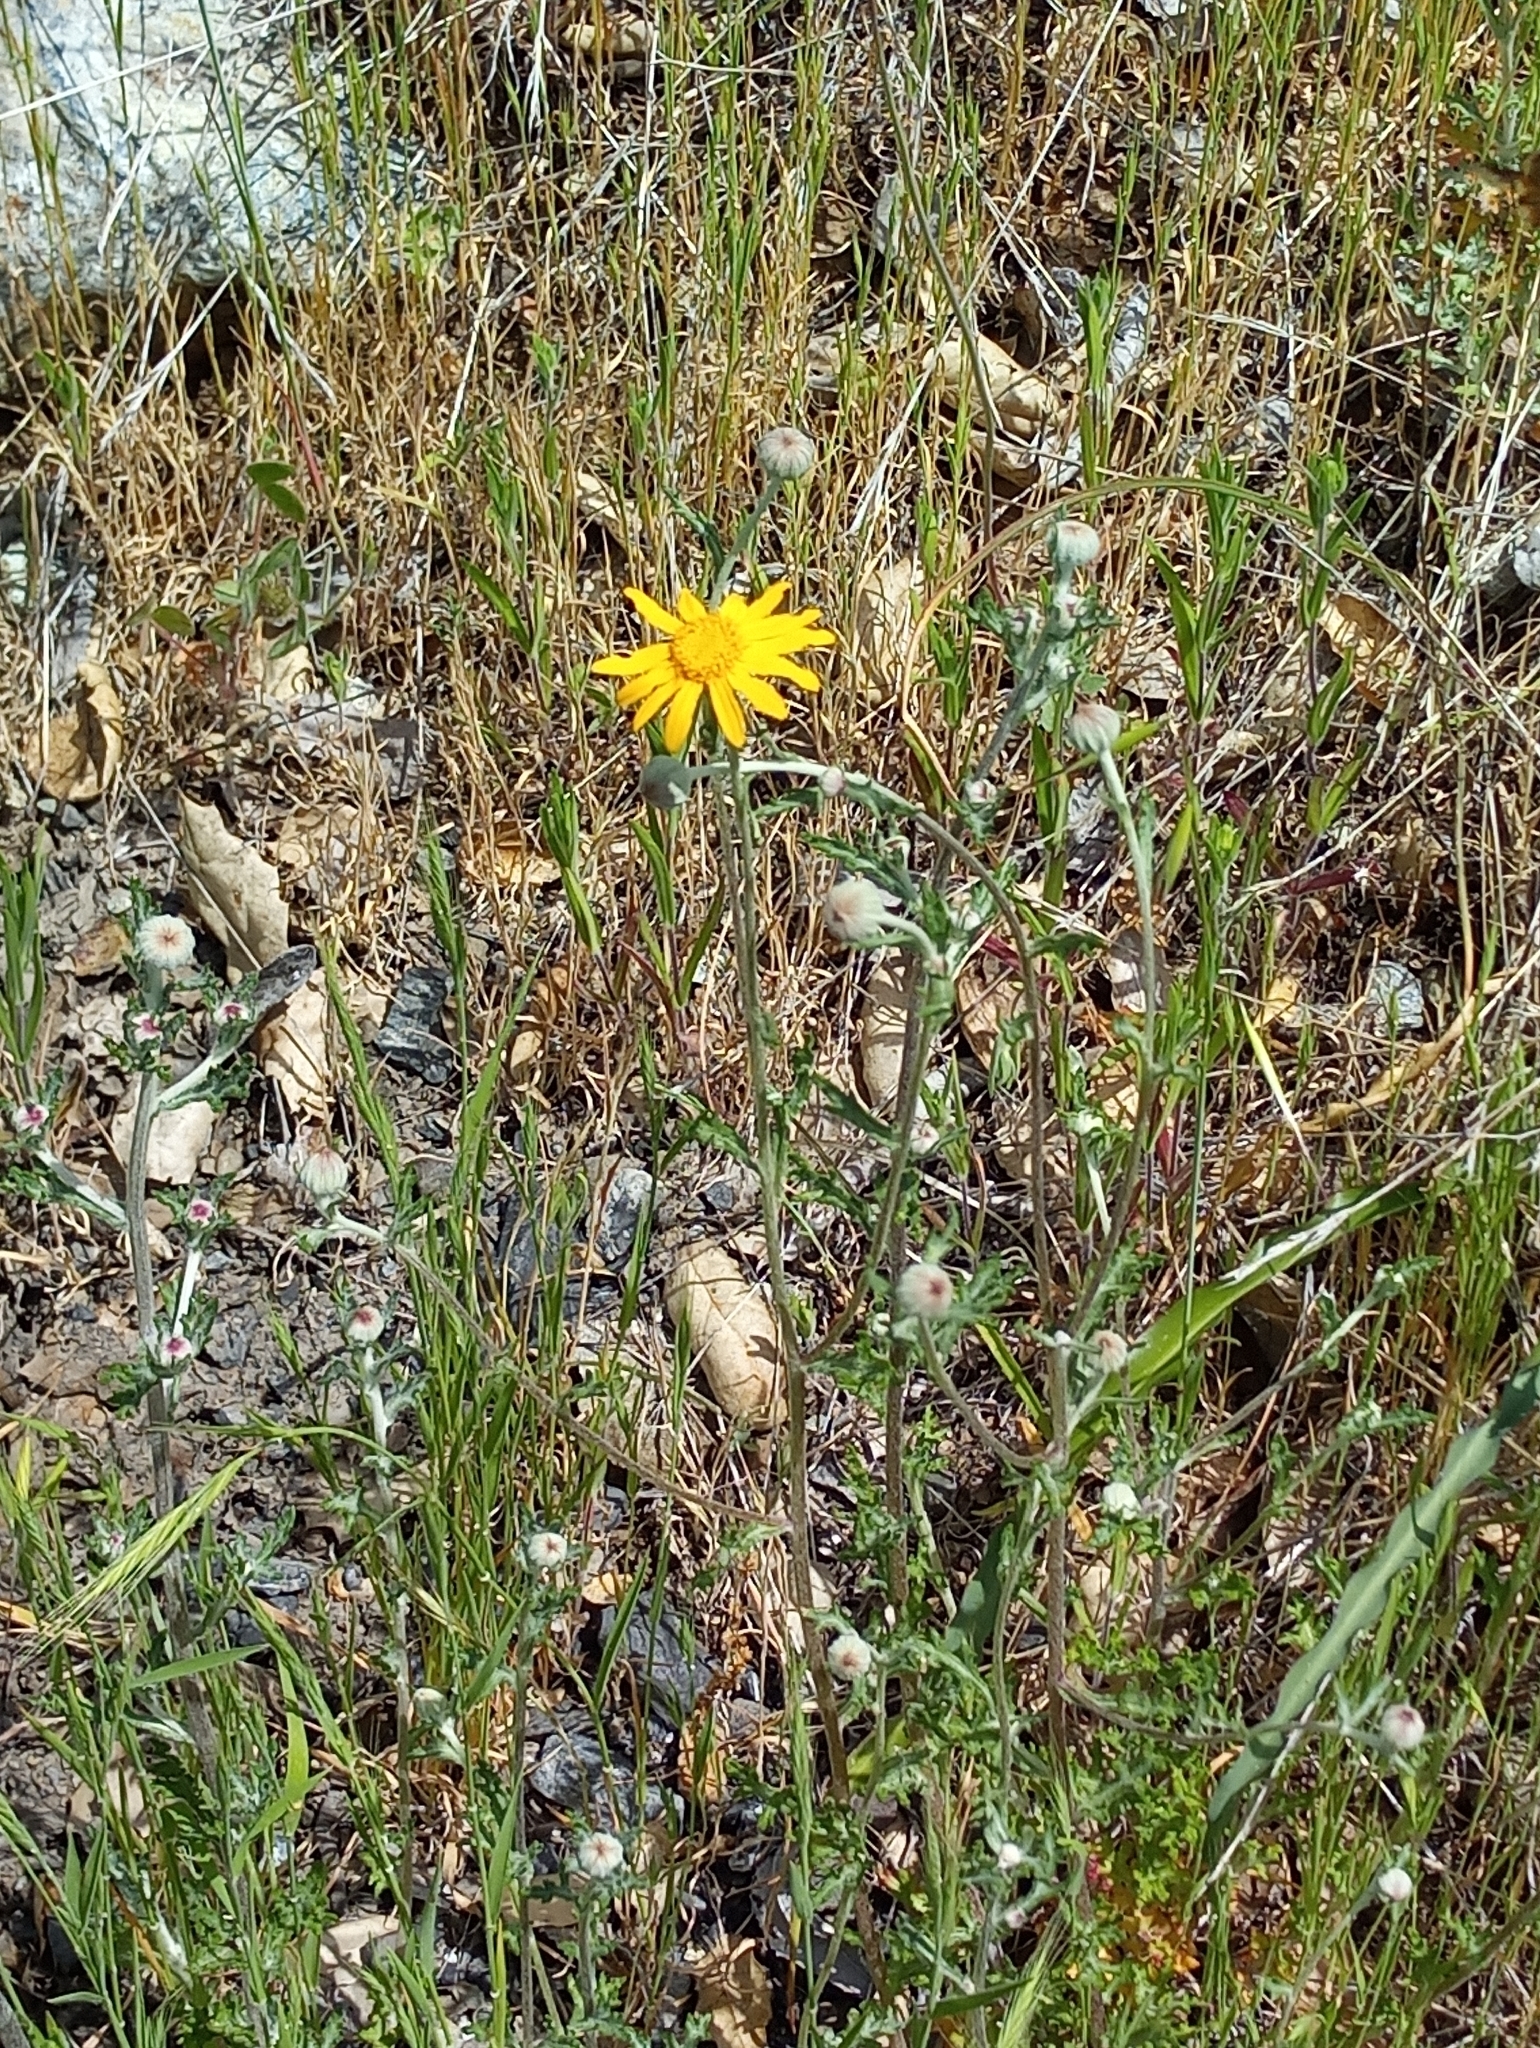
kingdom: Plantae
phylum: Tracheophyta
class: Magnoliopsida
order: Asterales
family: Asteraceae
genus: Eriophyllum
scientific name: Eriophyllum lanatum
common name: Common woolly-sunflower
